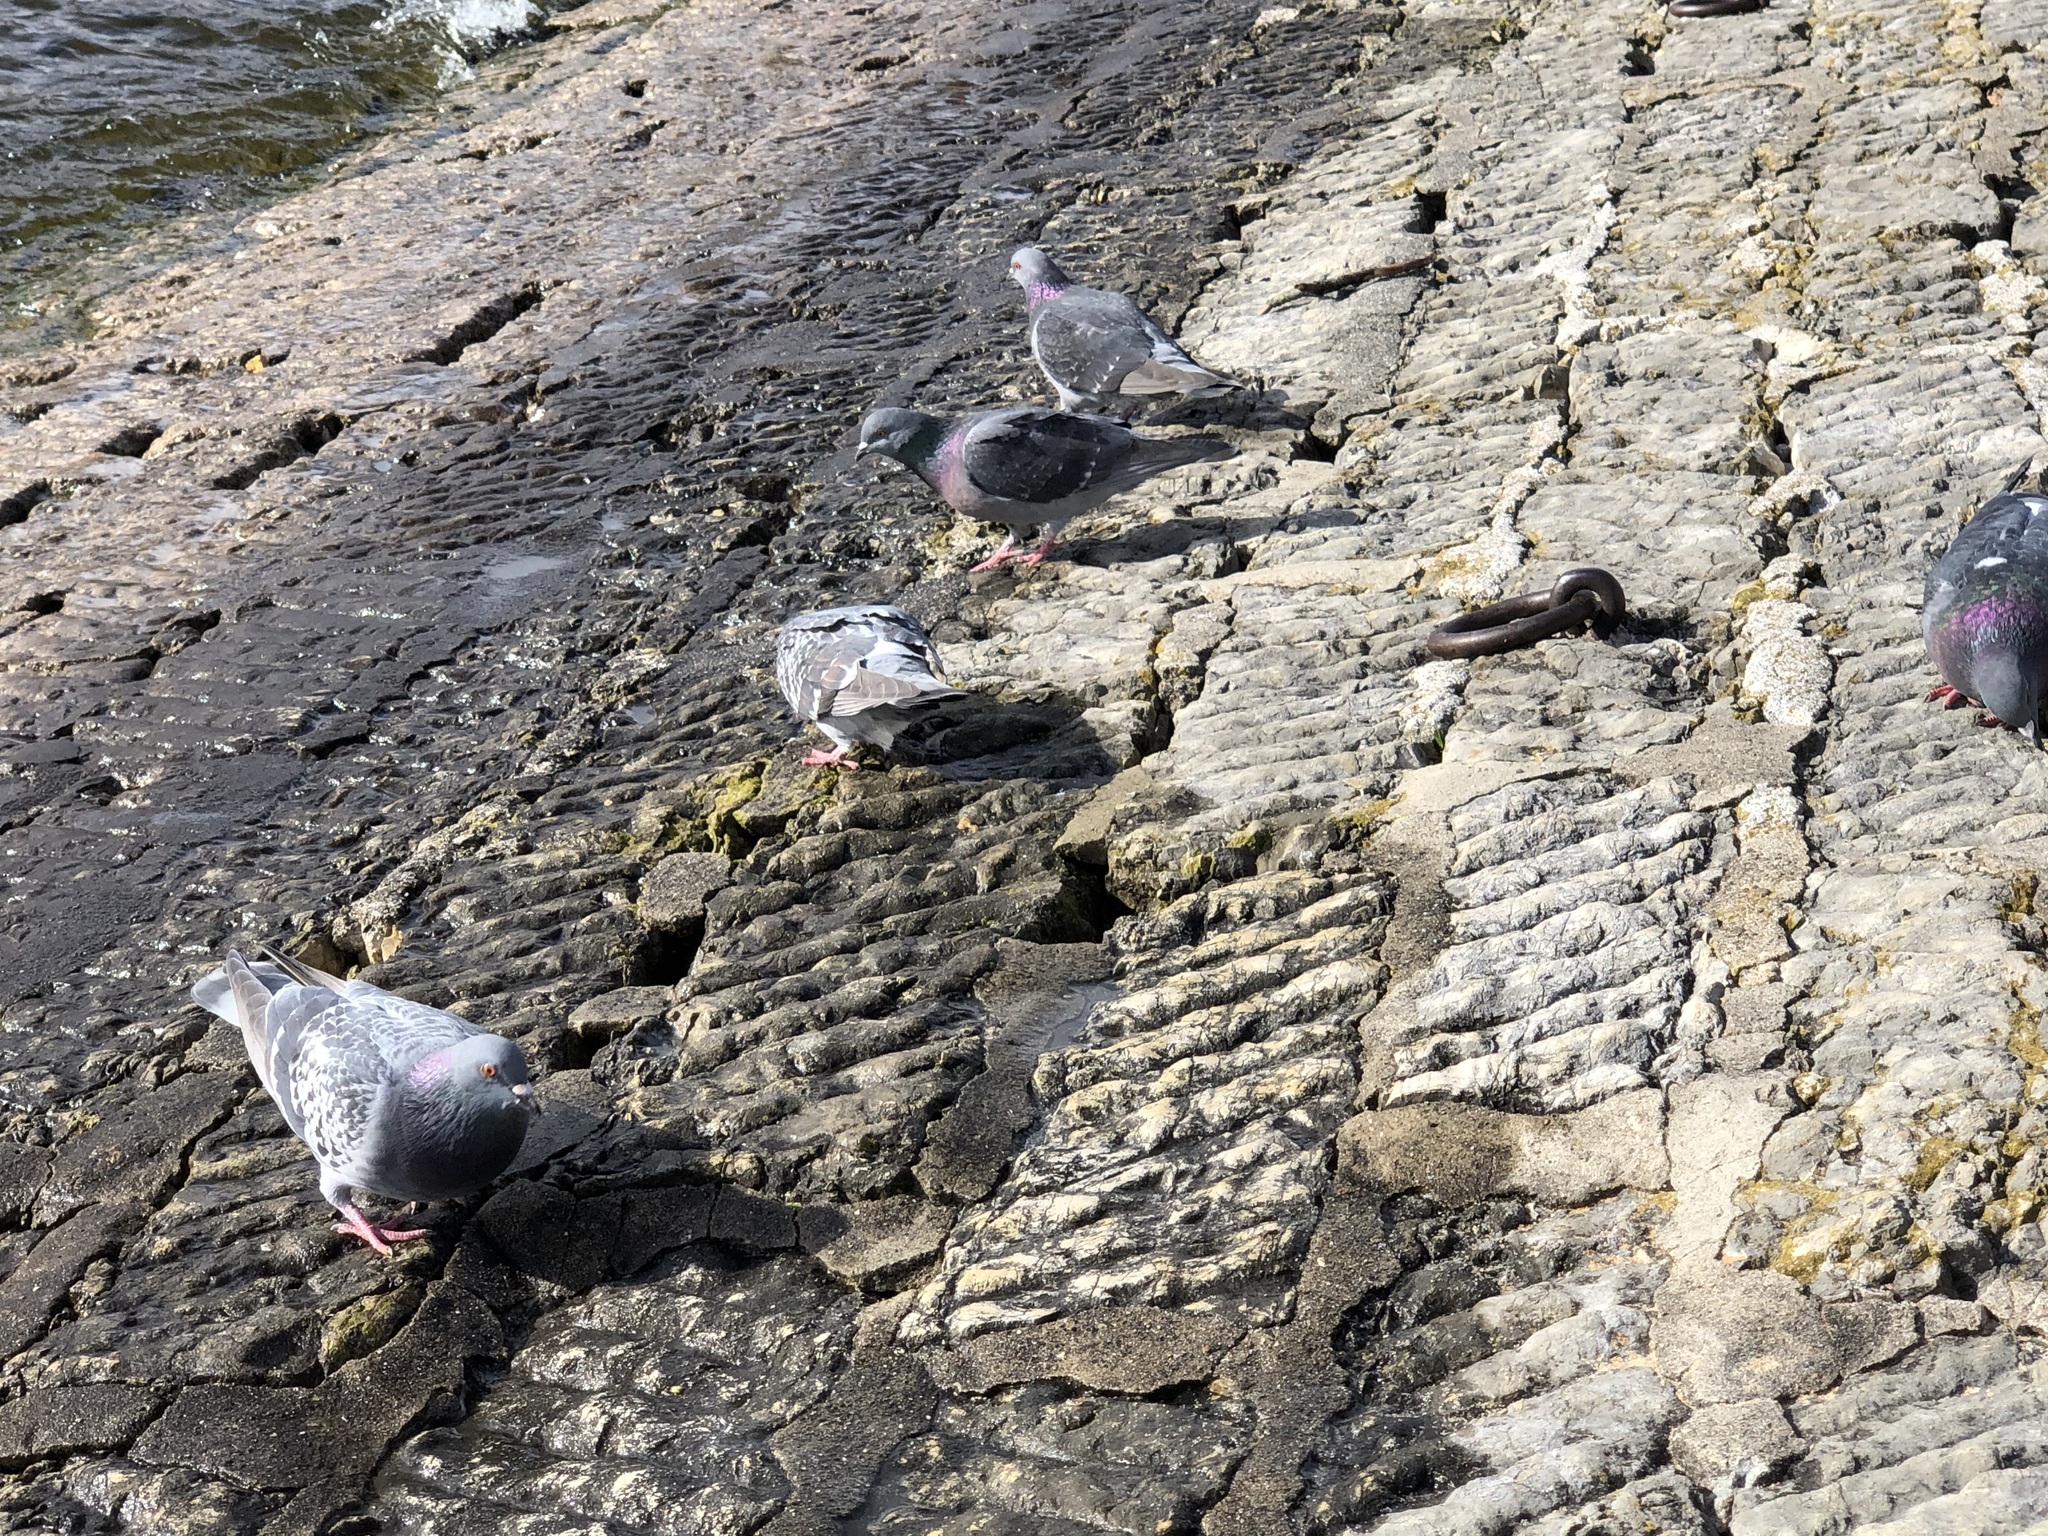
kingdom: Animalia
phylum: Chordata
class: Aves
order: Columbiformes
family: Columbidae
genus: Columba
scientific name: Columba livia
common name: Rock pigeon
